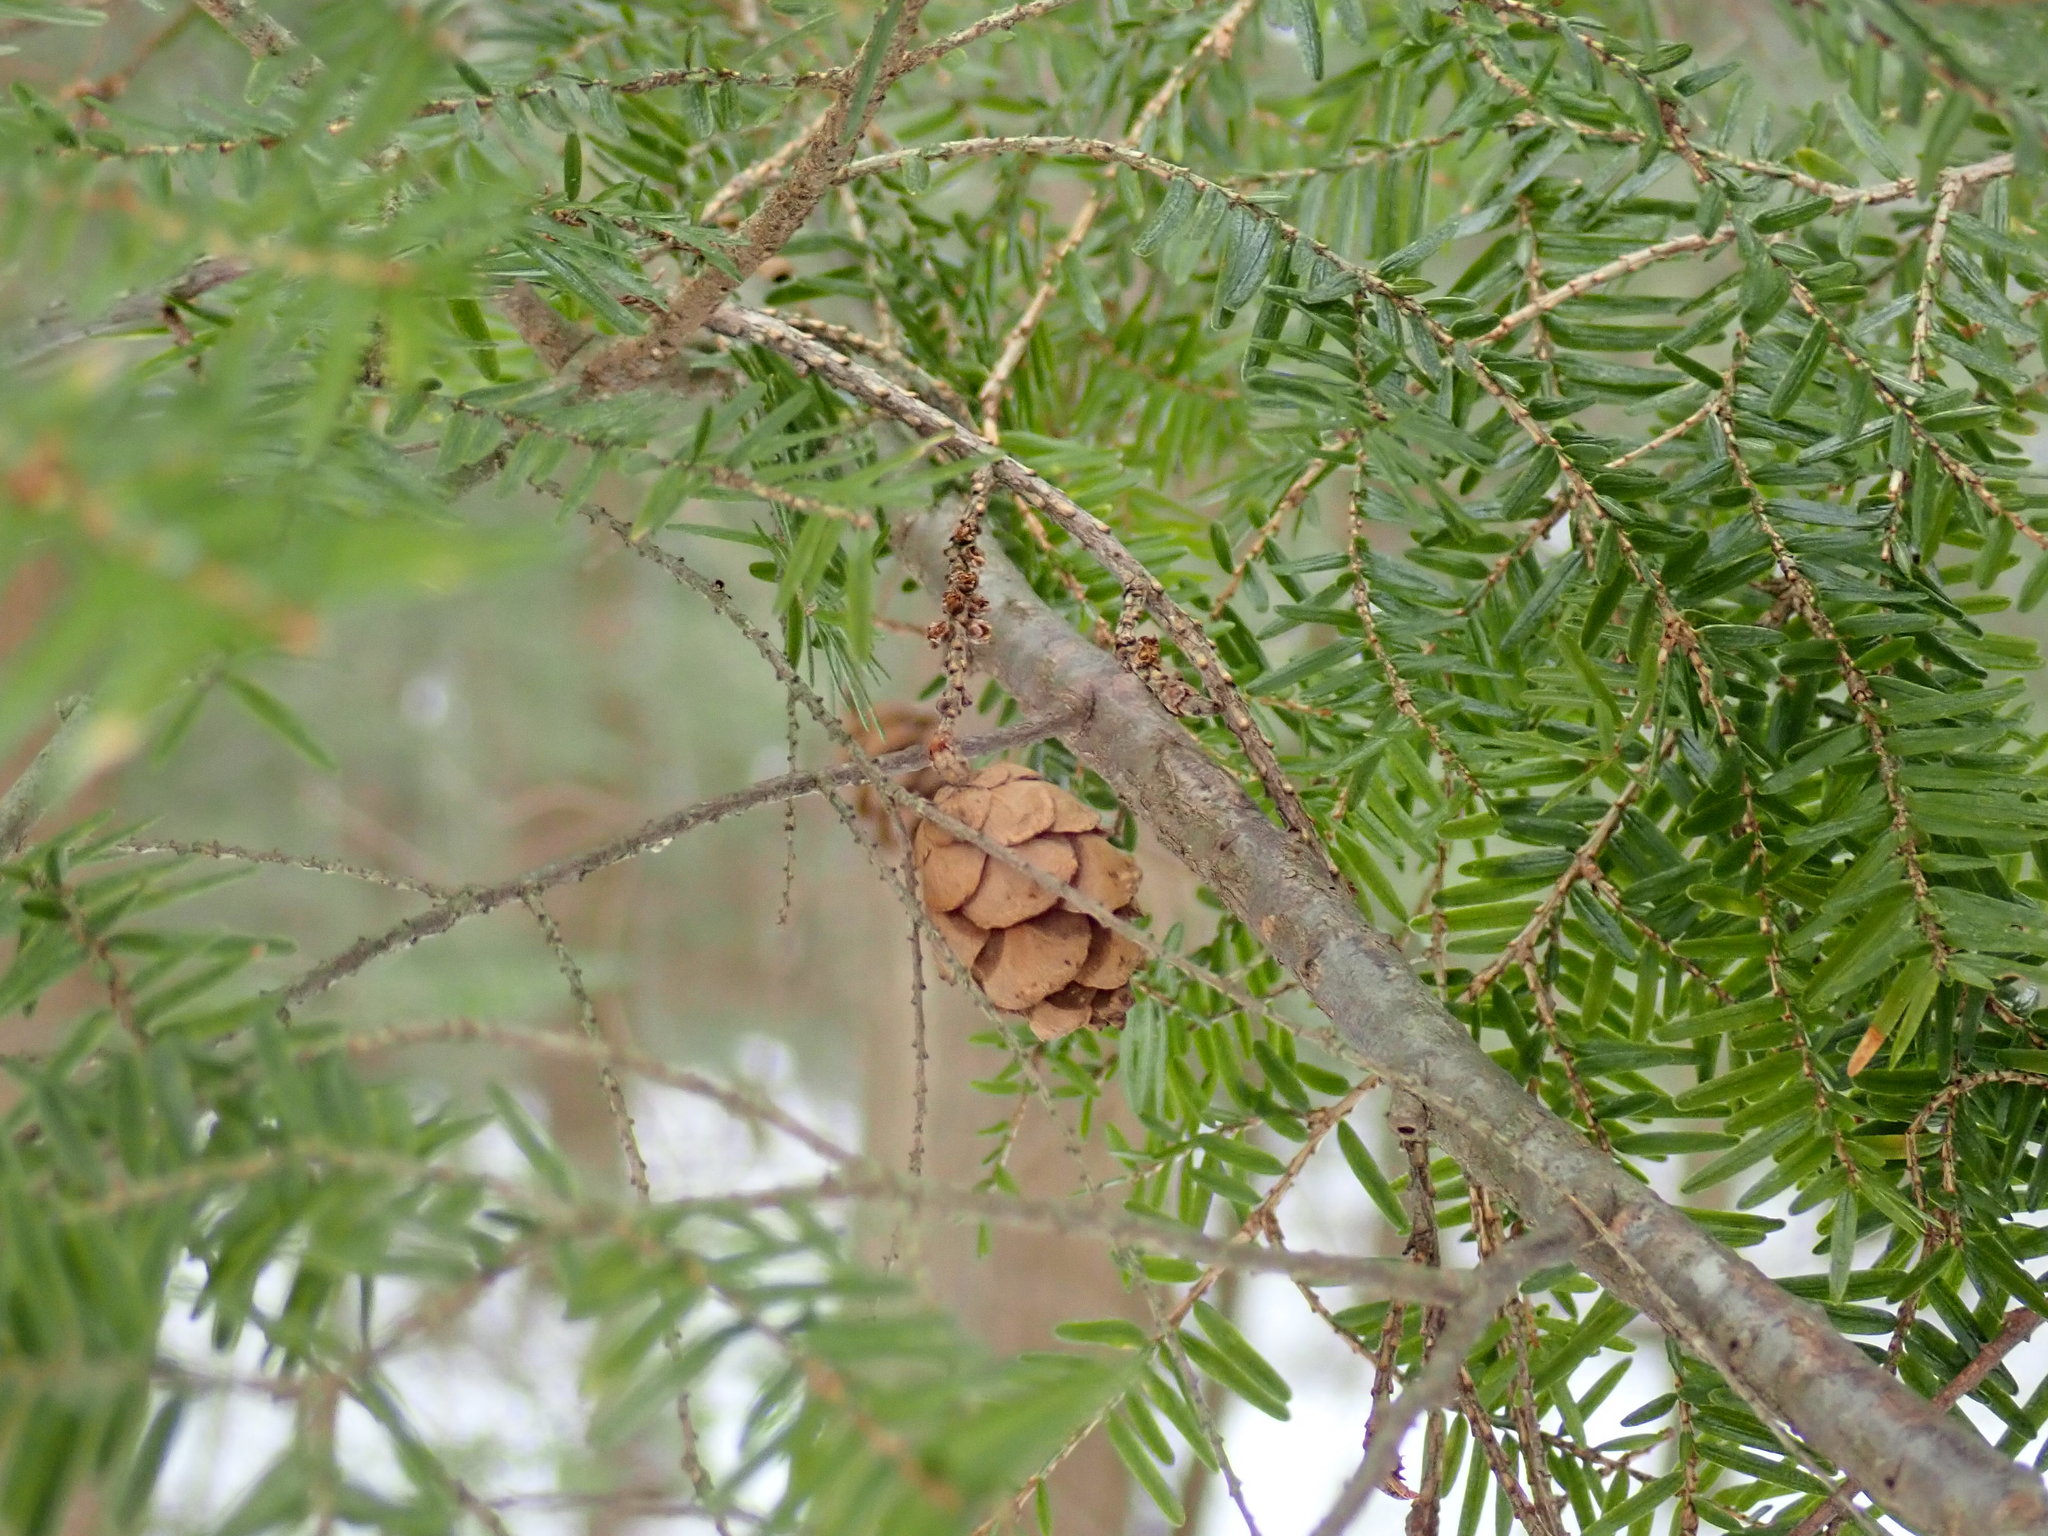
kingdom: Plantae
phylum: Tracheophyta
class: Pinopsida
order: Pinales
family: Pinaceae
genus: Tsuga
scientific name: Tsuga canadensis
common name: Eastern hemlock
